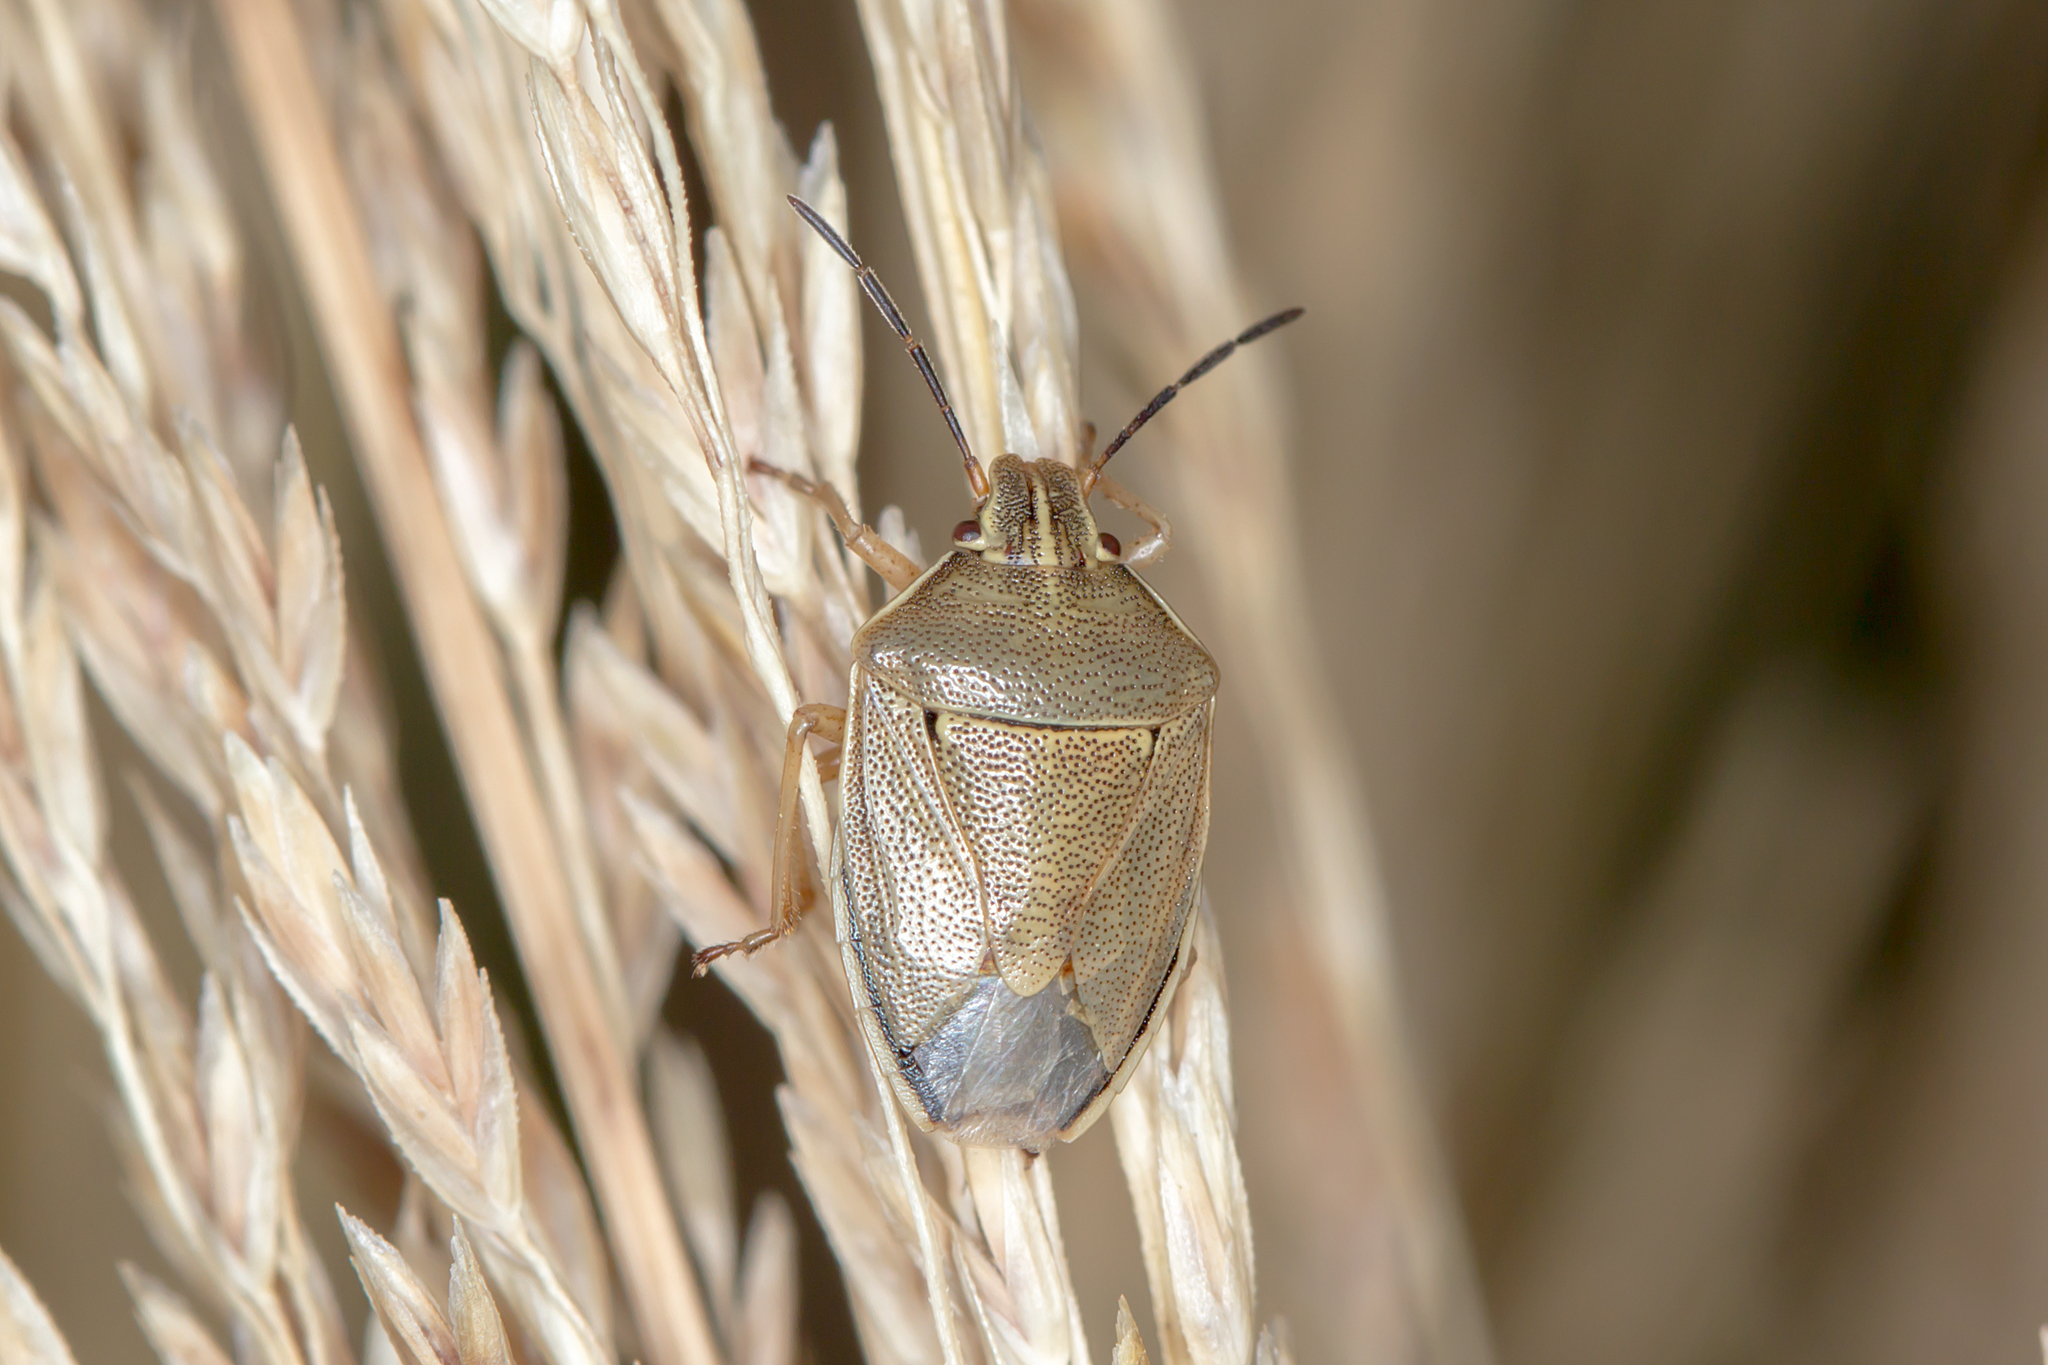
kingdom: Animalia
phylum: Arthropoda
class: Insecta
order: Hemiptera
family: Pentatomidae
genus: Mycoolona
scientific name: Mycoolona
